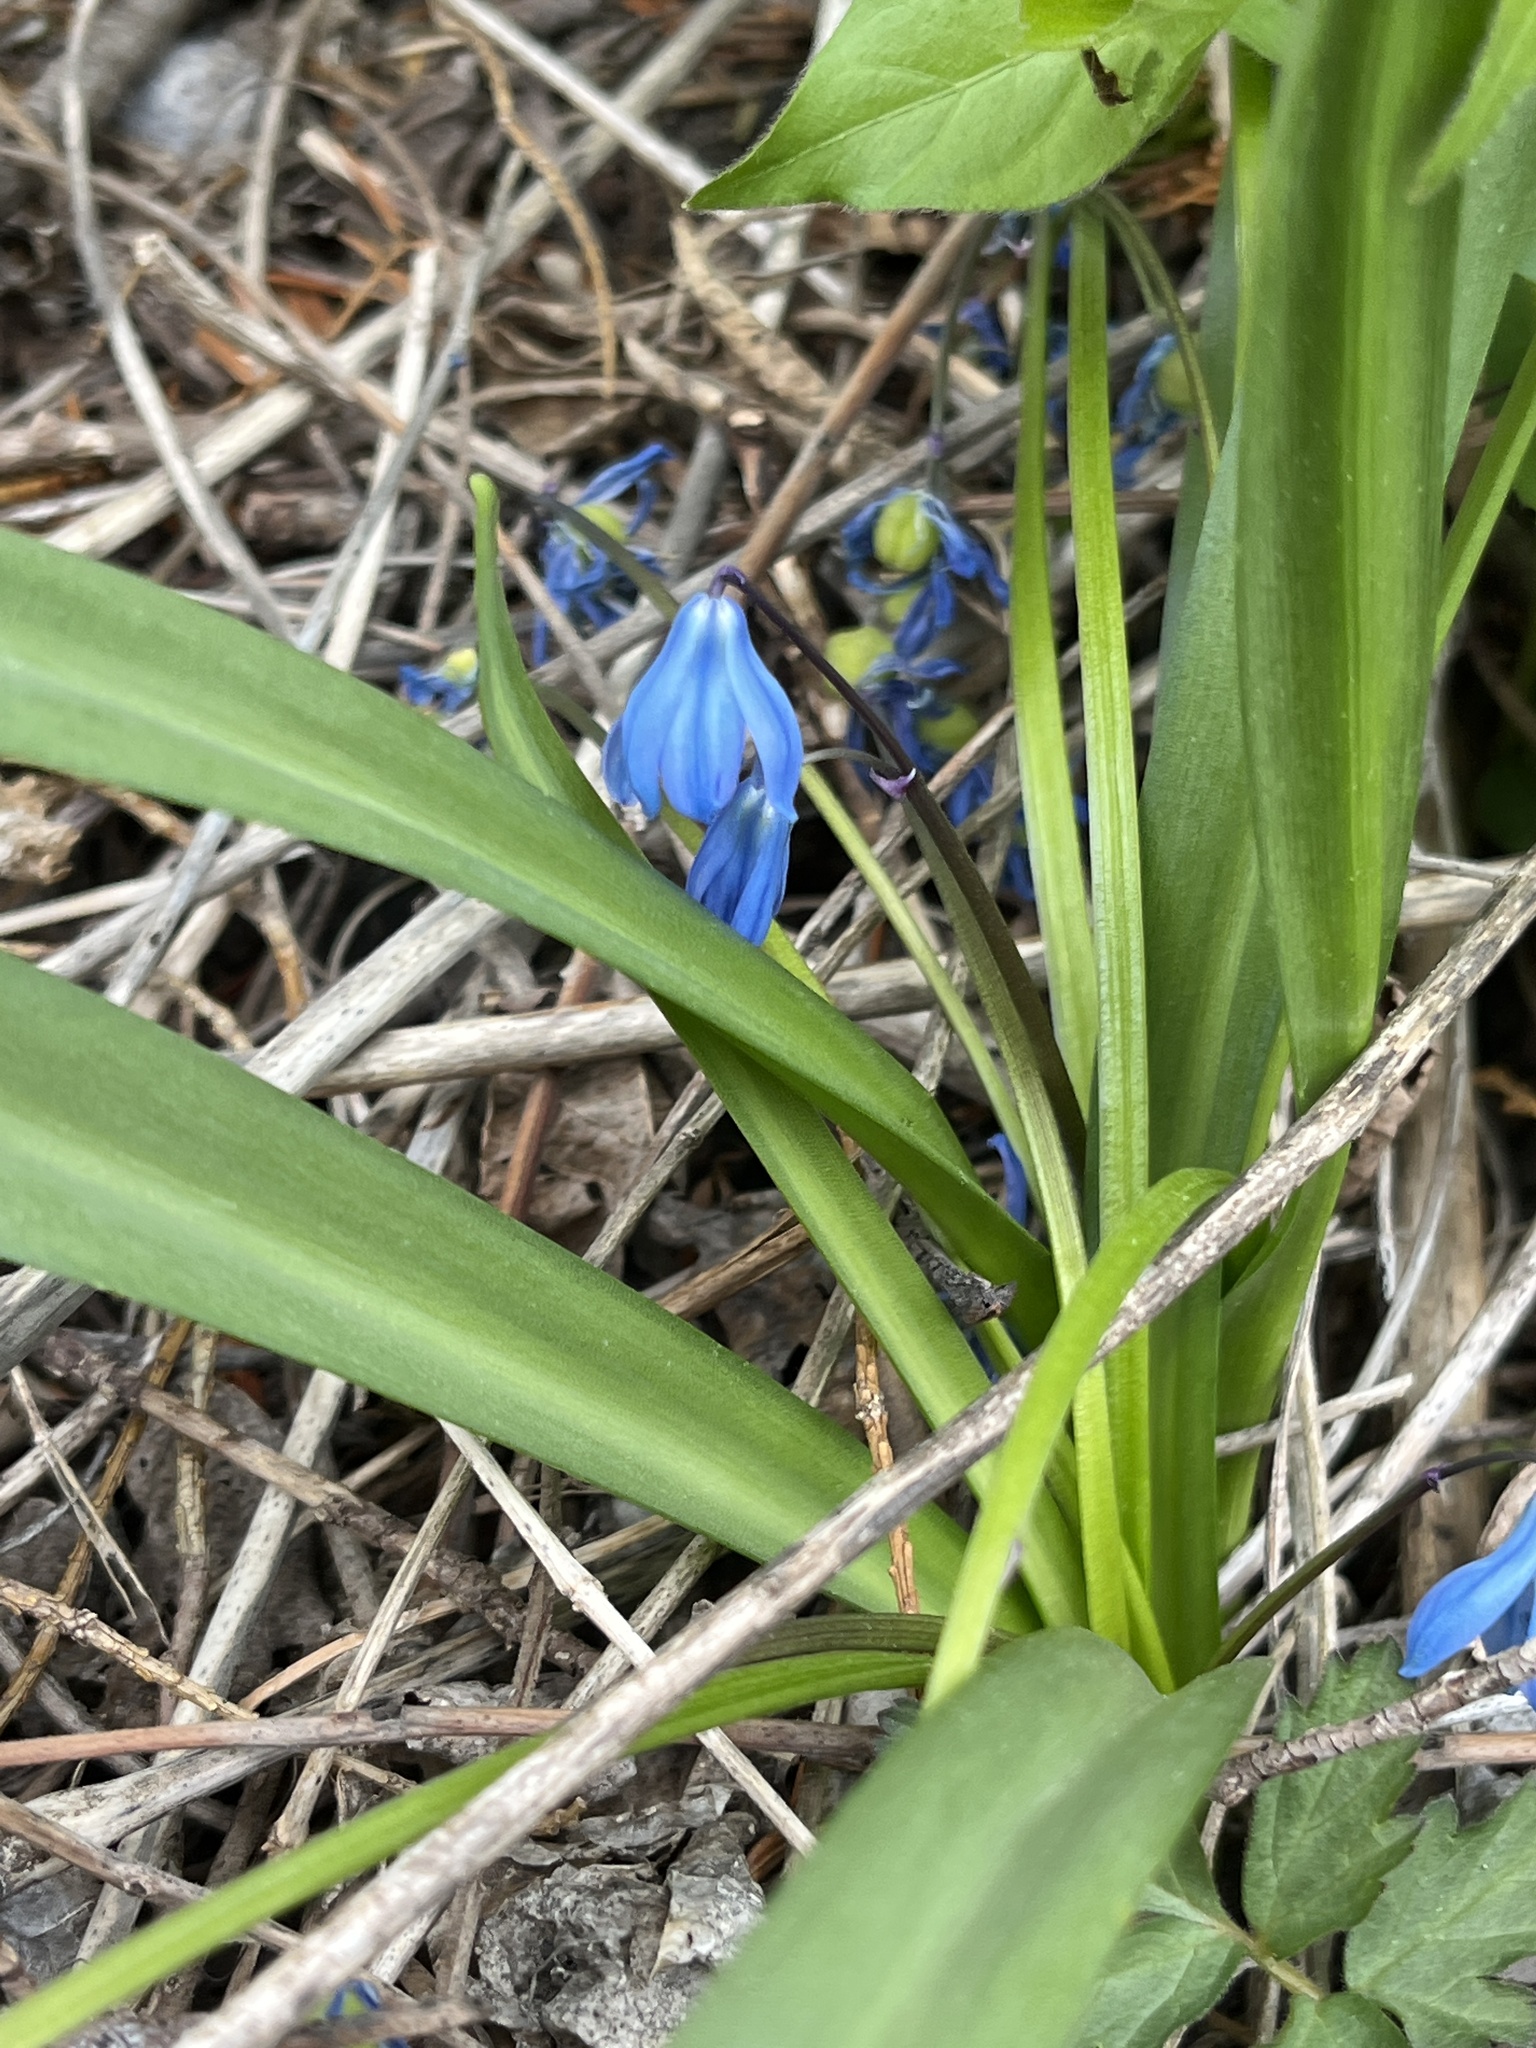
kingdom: Plantae
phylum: Tracheophyta
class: Liliopsida
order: Asparagales
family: Asparagaceae
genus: Scilla
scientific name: Scilla siberica
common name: Siberian squill
